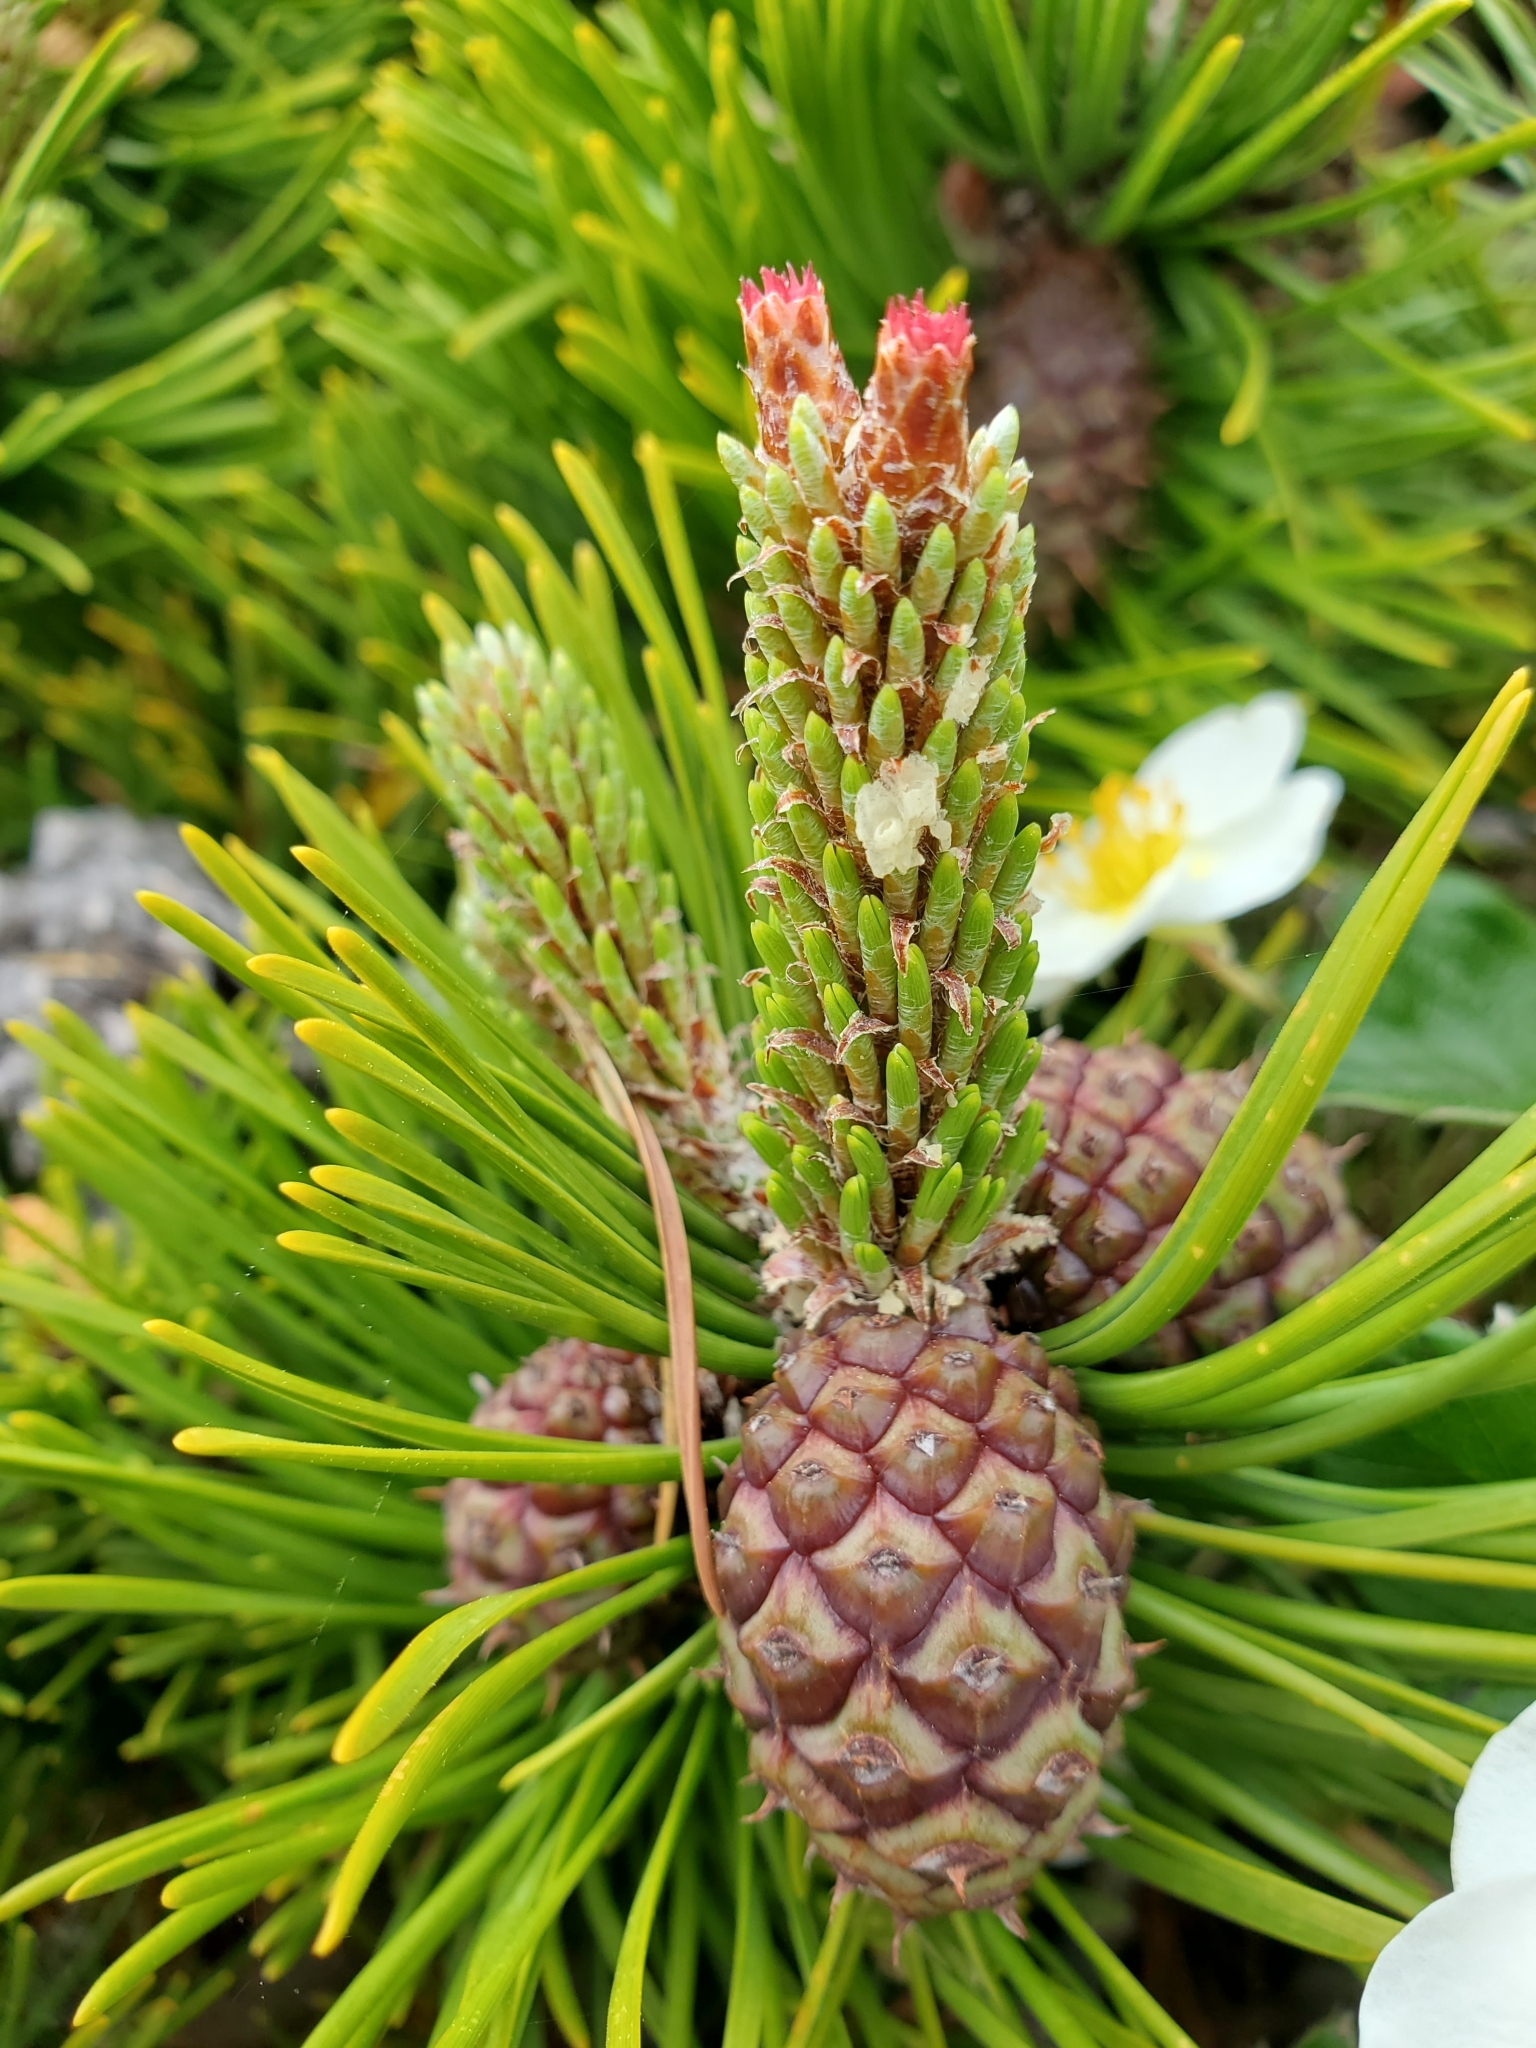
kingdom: Plantae
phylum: Tracheophyta
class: Pinopsida
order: Pinales
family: Pinaceae
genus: Pinus
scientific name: Pinus contorta
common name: Lodgepole pine
